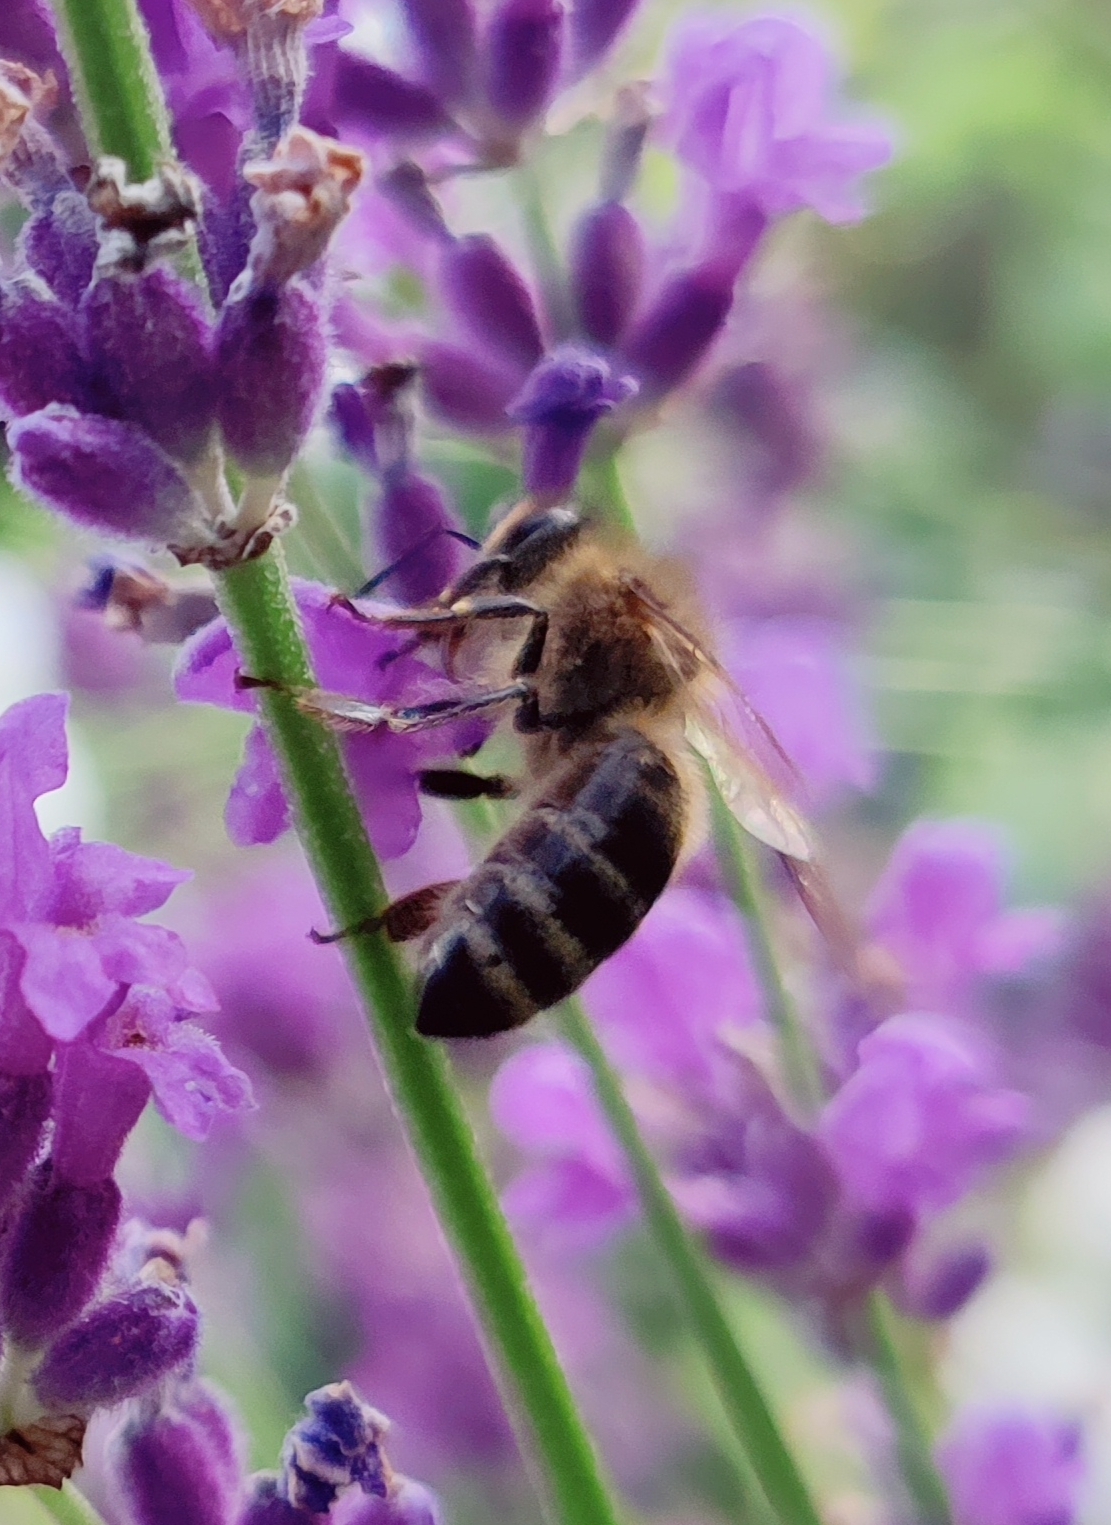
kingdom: Animalia
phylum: Arthropoda
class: Insecta
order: Hymenoptera
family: Apidae
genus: Apis
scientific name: Apis mellifera
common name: Honey bee
